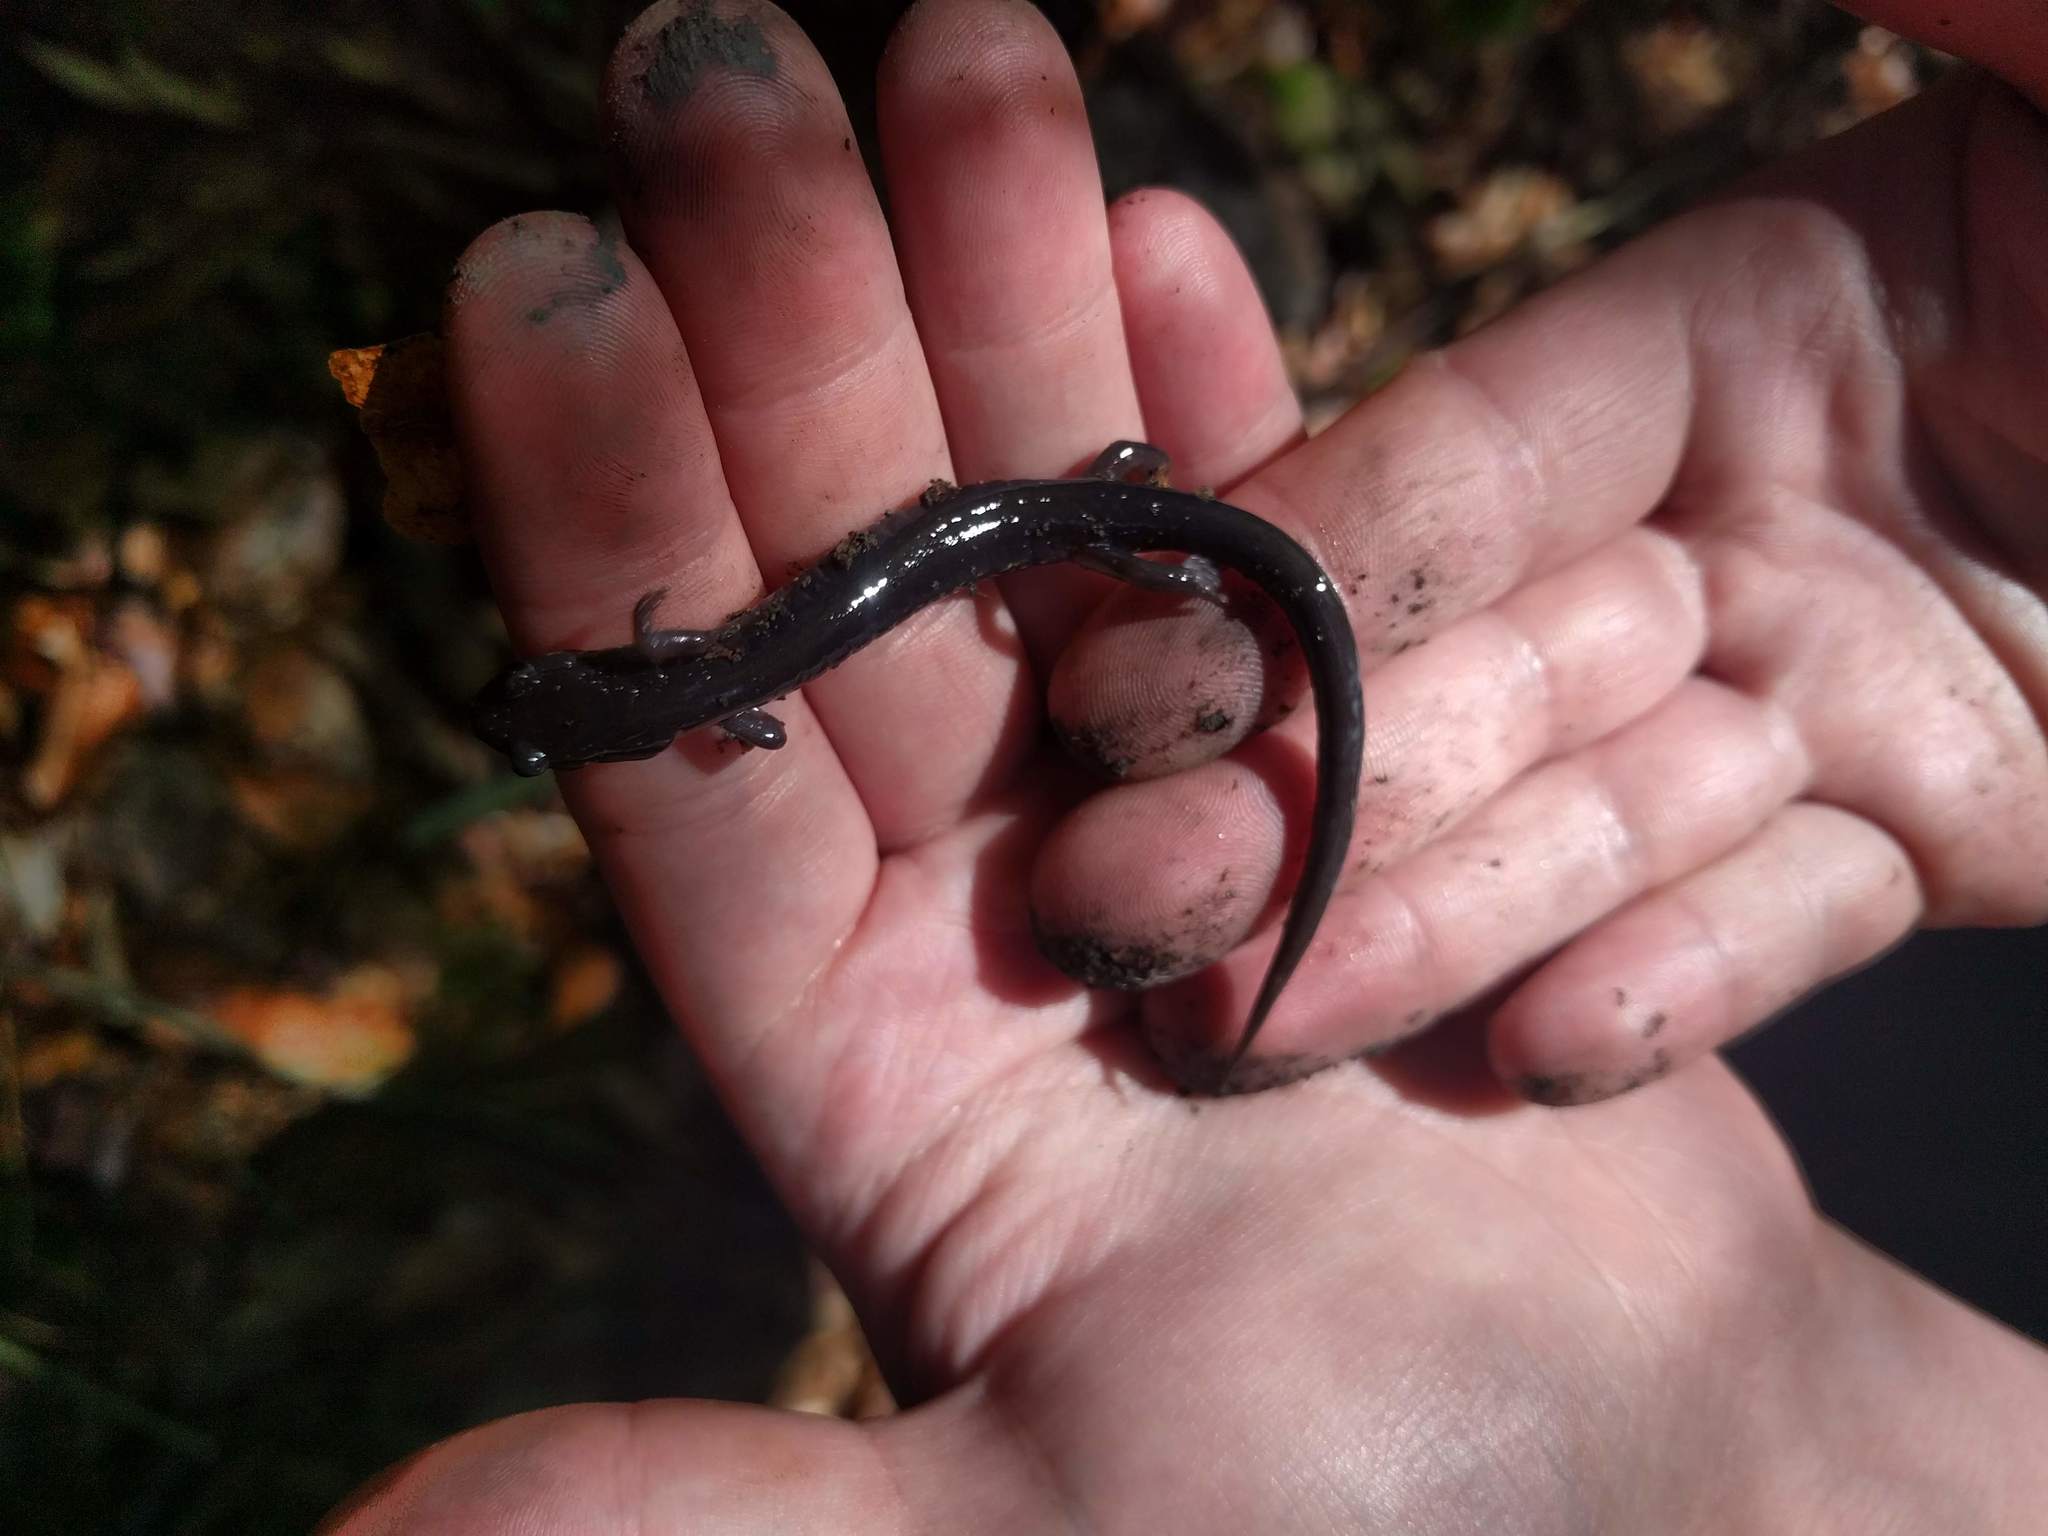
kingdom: Animalia
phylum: Chordata
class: Amphibia
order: Caudata
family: Plethodontidae
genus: Plethodon
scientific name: Plethodon wehrlei
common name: Wehrle's salamander
